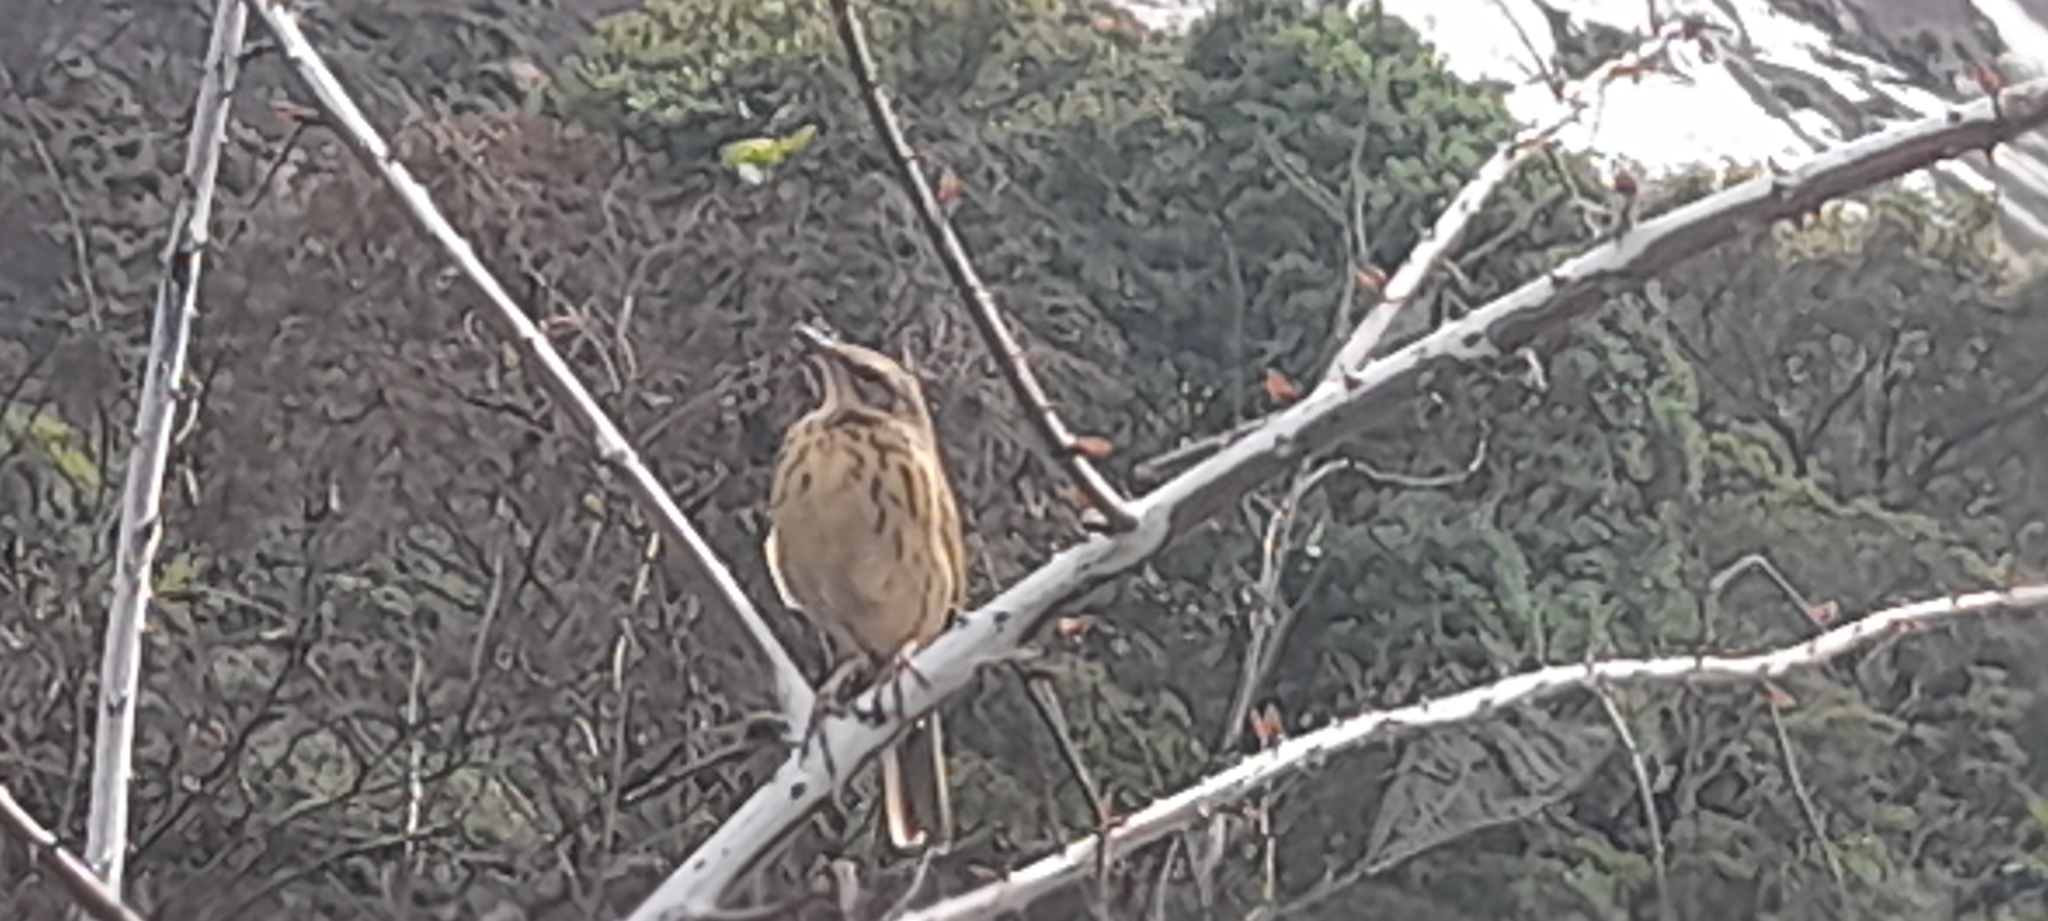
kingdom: Animalia
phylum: Chordata
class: Aves
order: Passeriformes
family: Motacillidae
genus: Anthus
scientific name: Anthus nilghiriensis
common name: Nilgiri pipit
